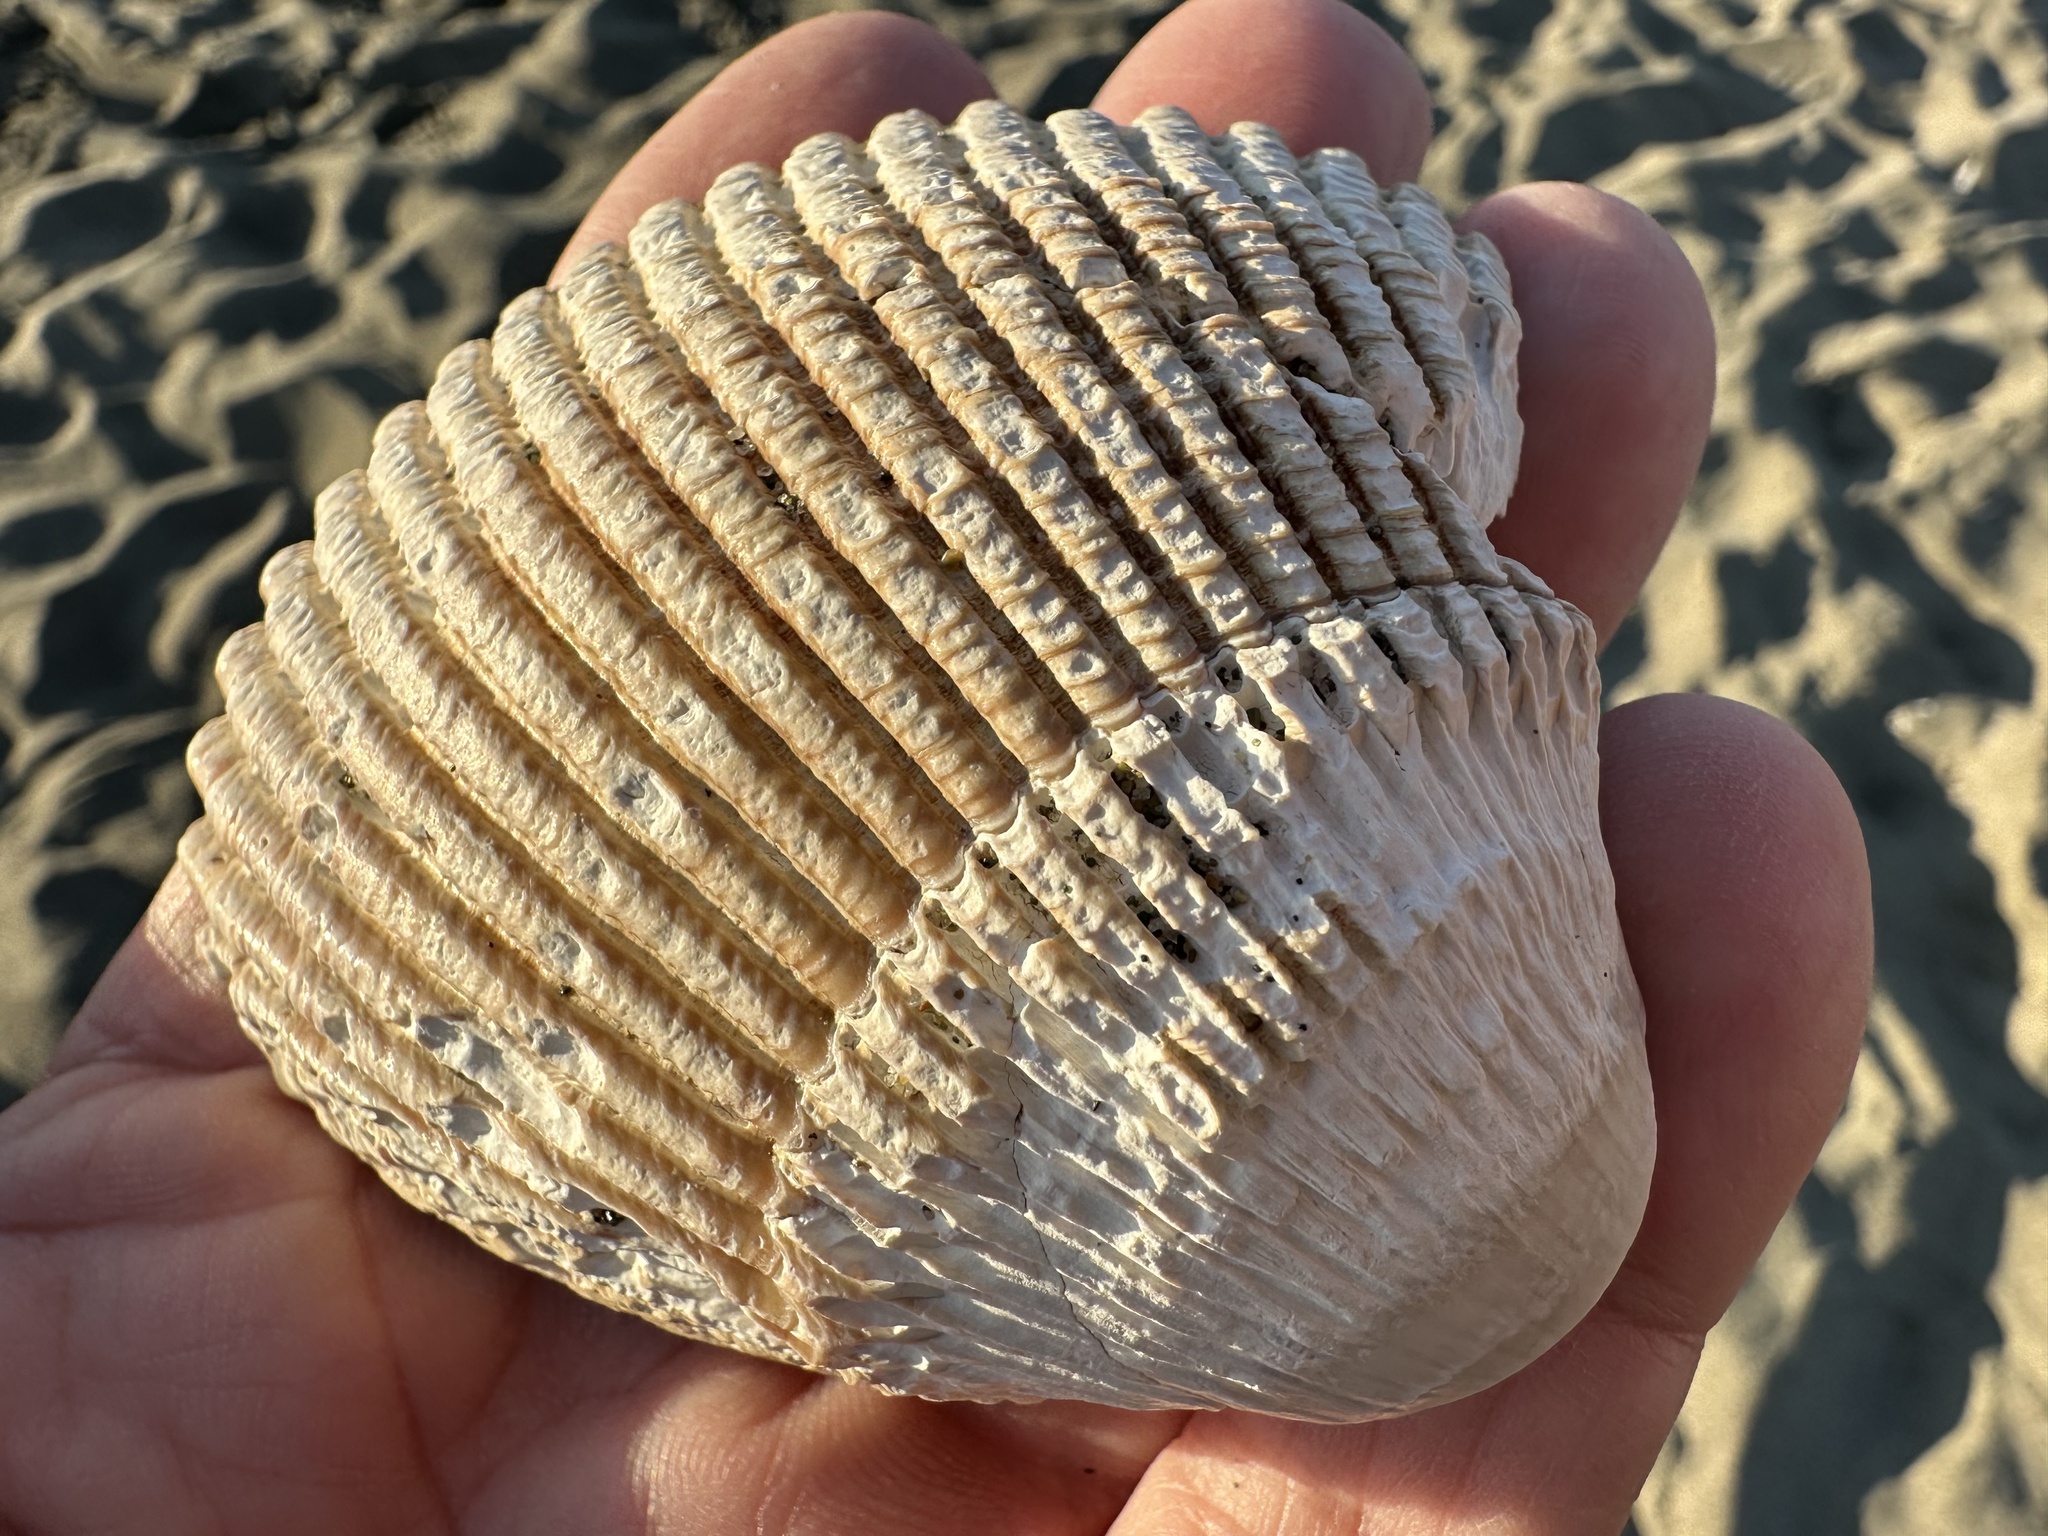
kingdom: Animalia
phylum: Mollusca
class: Bivalvia
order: Cardiida
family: Cardiidae
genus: Clinocardium
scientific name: Clinocardium nuttallii
